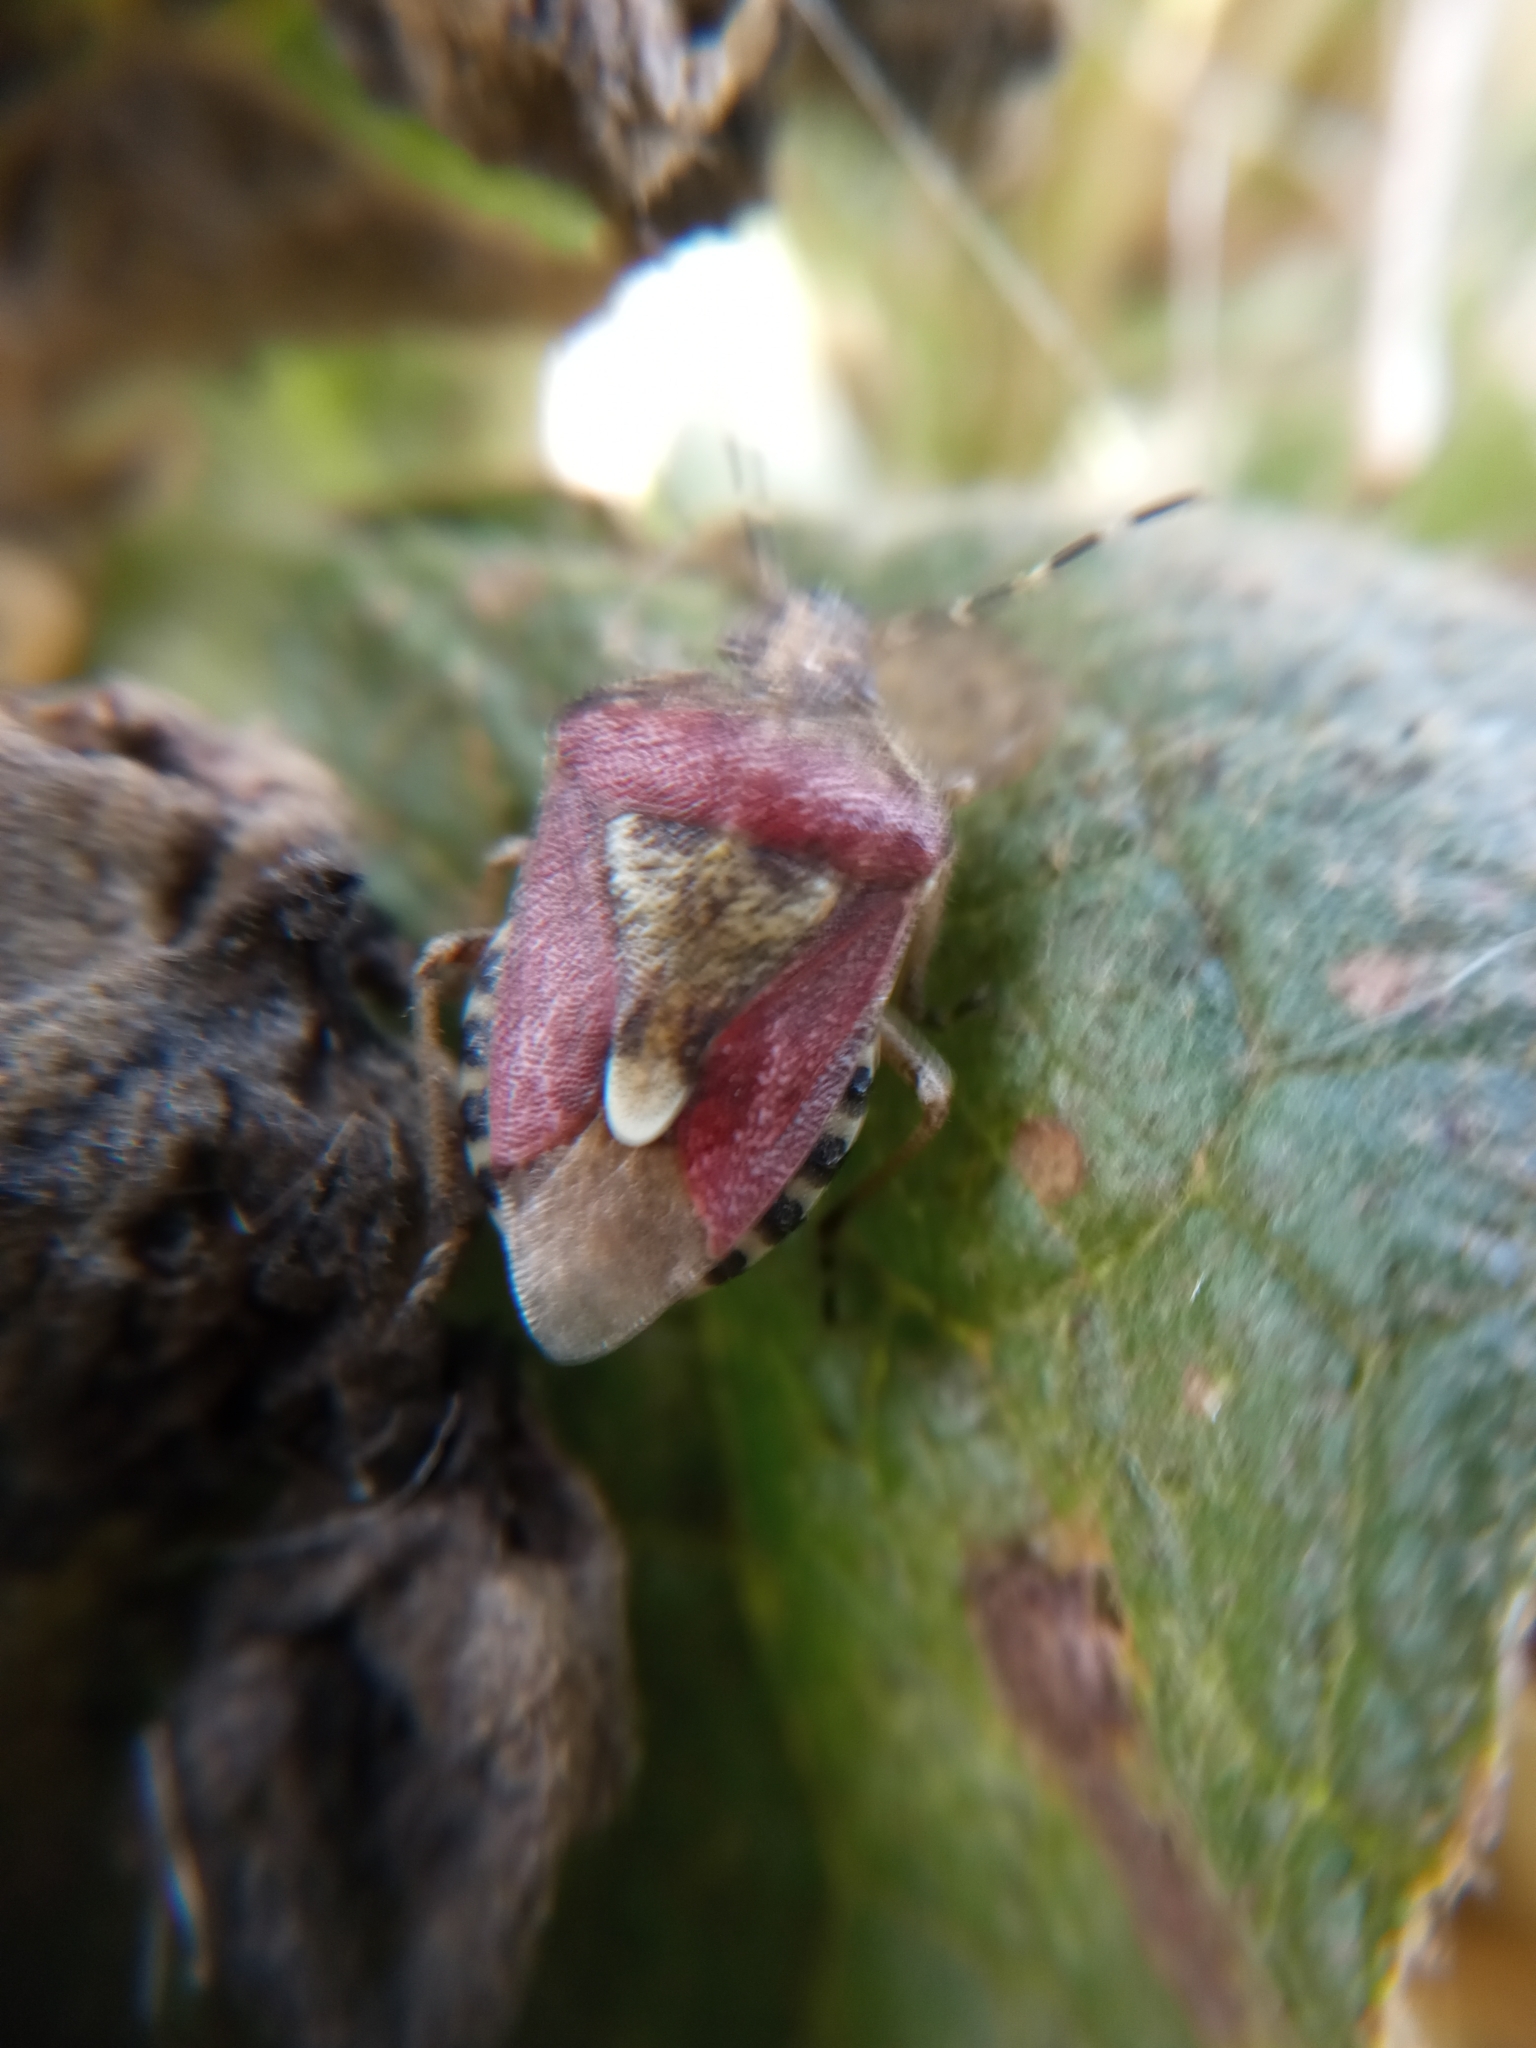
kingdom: Animalia
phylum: Arthropoda
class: Insecta
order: Hemiptera
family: Pentatomidae
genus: Dolycoris
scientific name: Dolycoris baccarum
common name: Sloe bug
